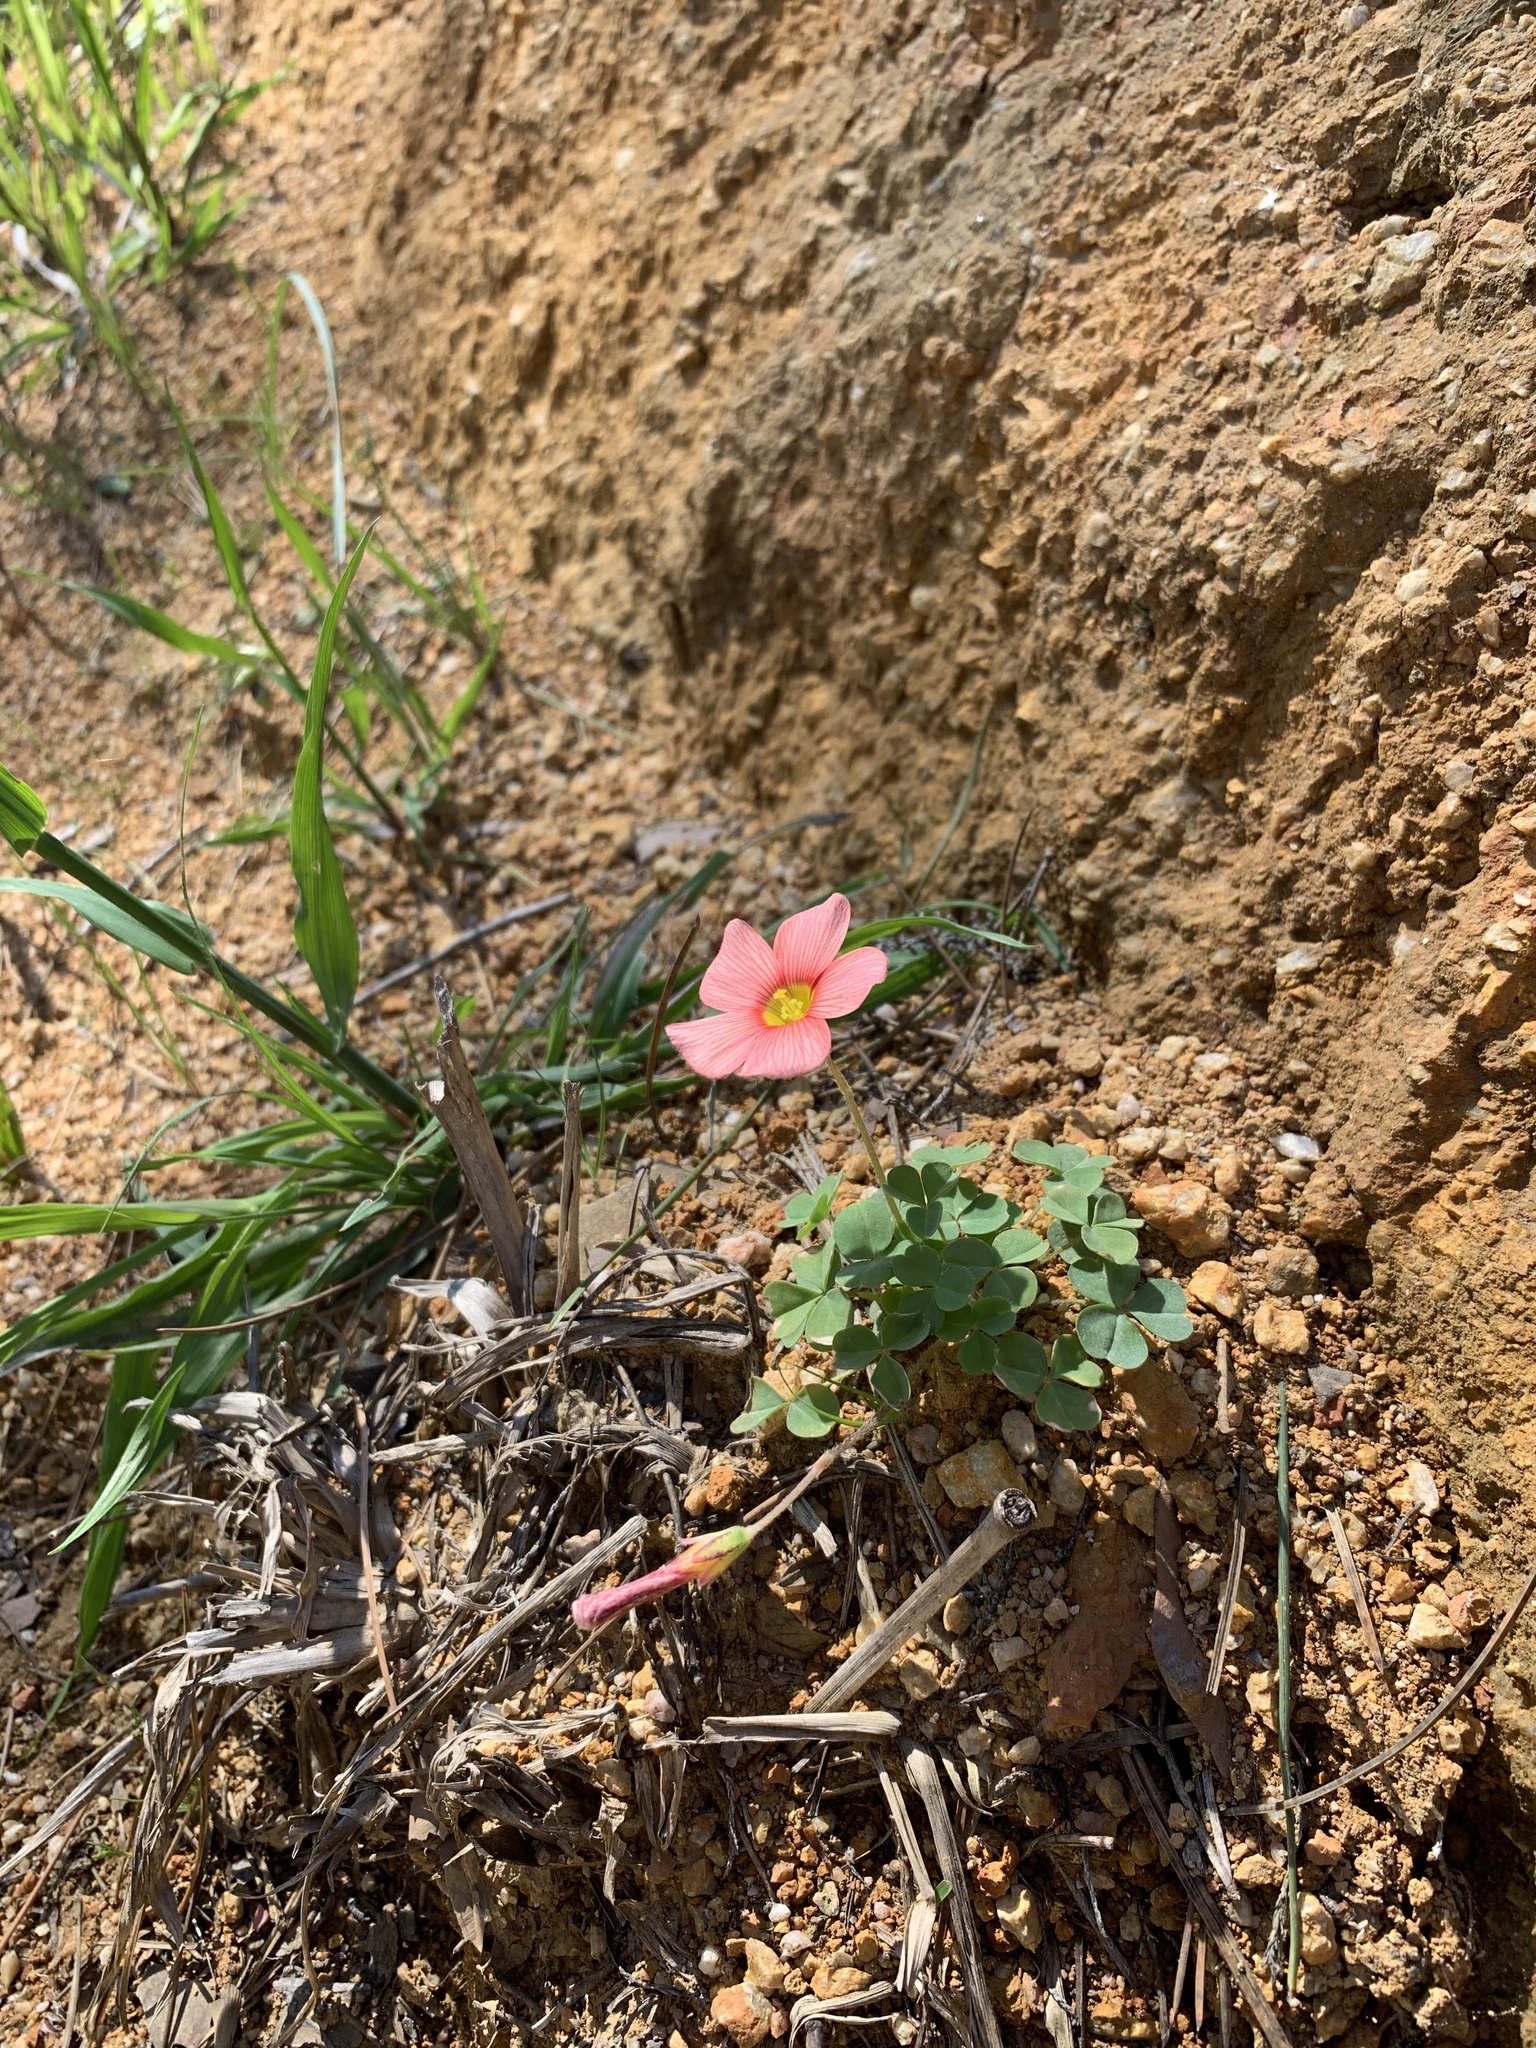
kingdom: Plantae
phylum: Tracheophyta
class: Magnoliopsida
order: Oxalidales
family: Oxalidaceae
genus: Oxalis
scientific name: Oxalis obtusa
